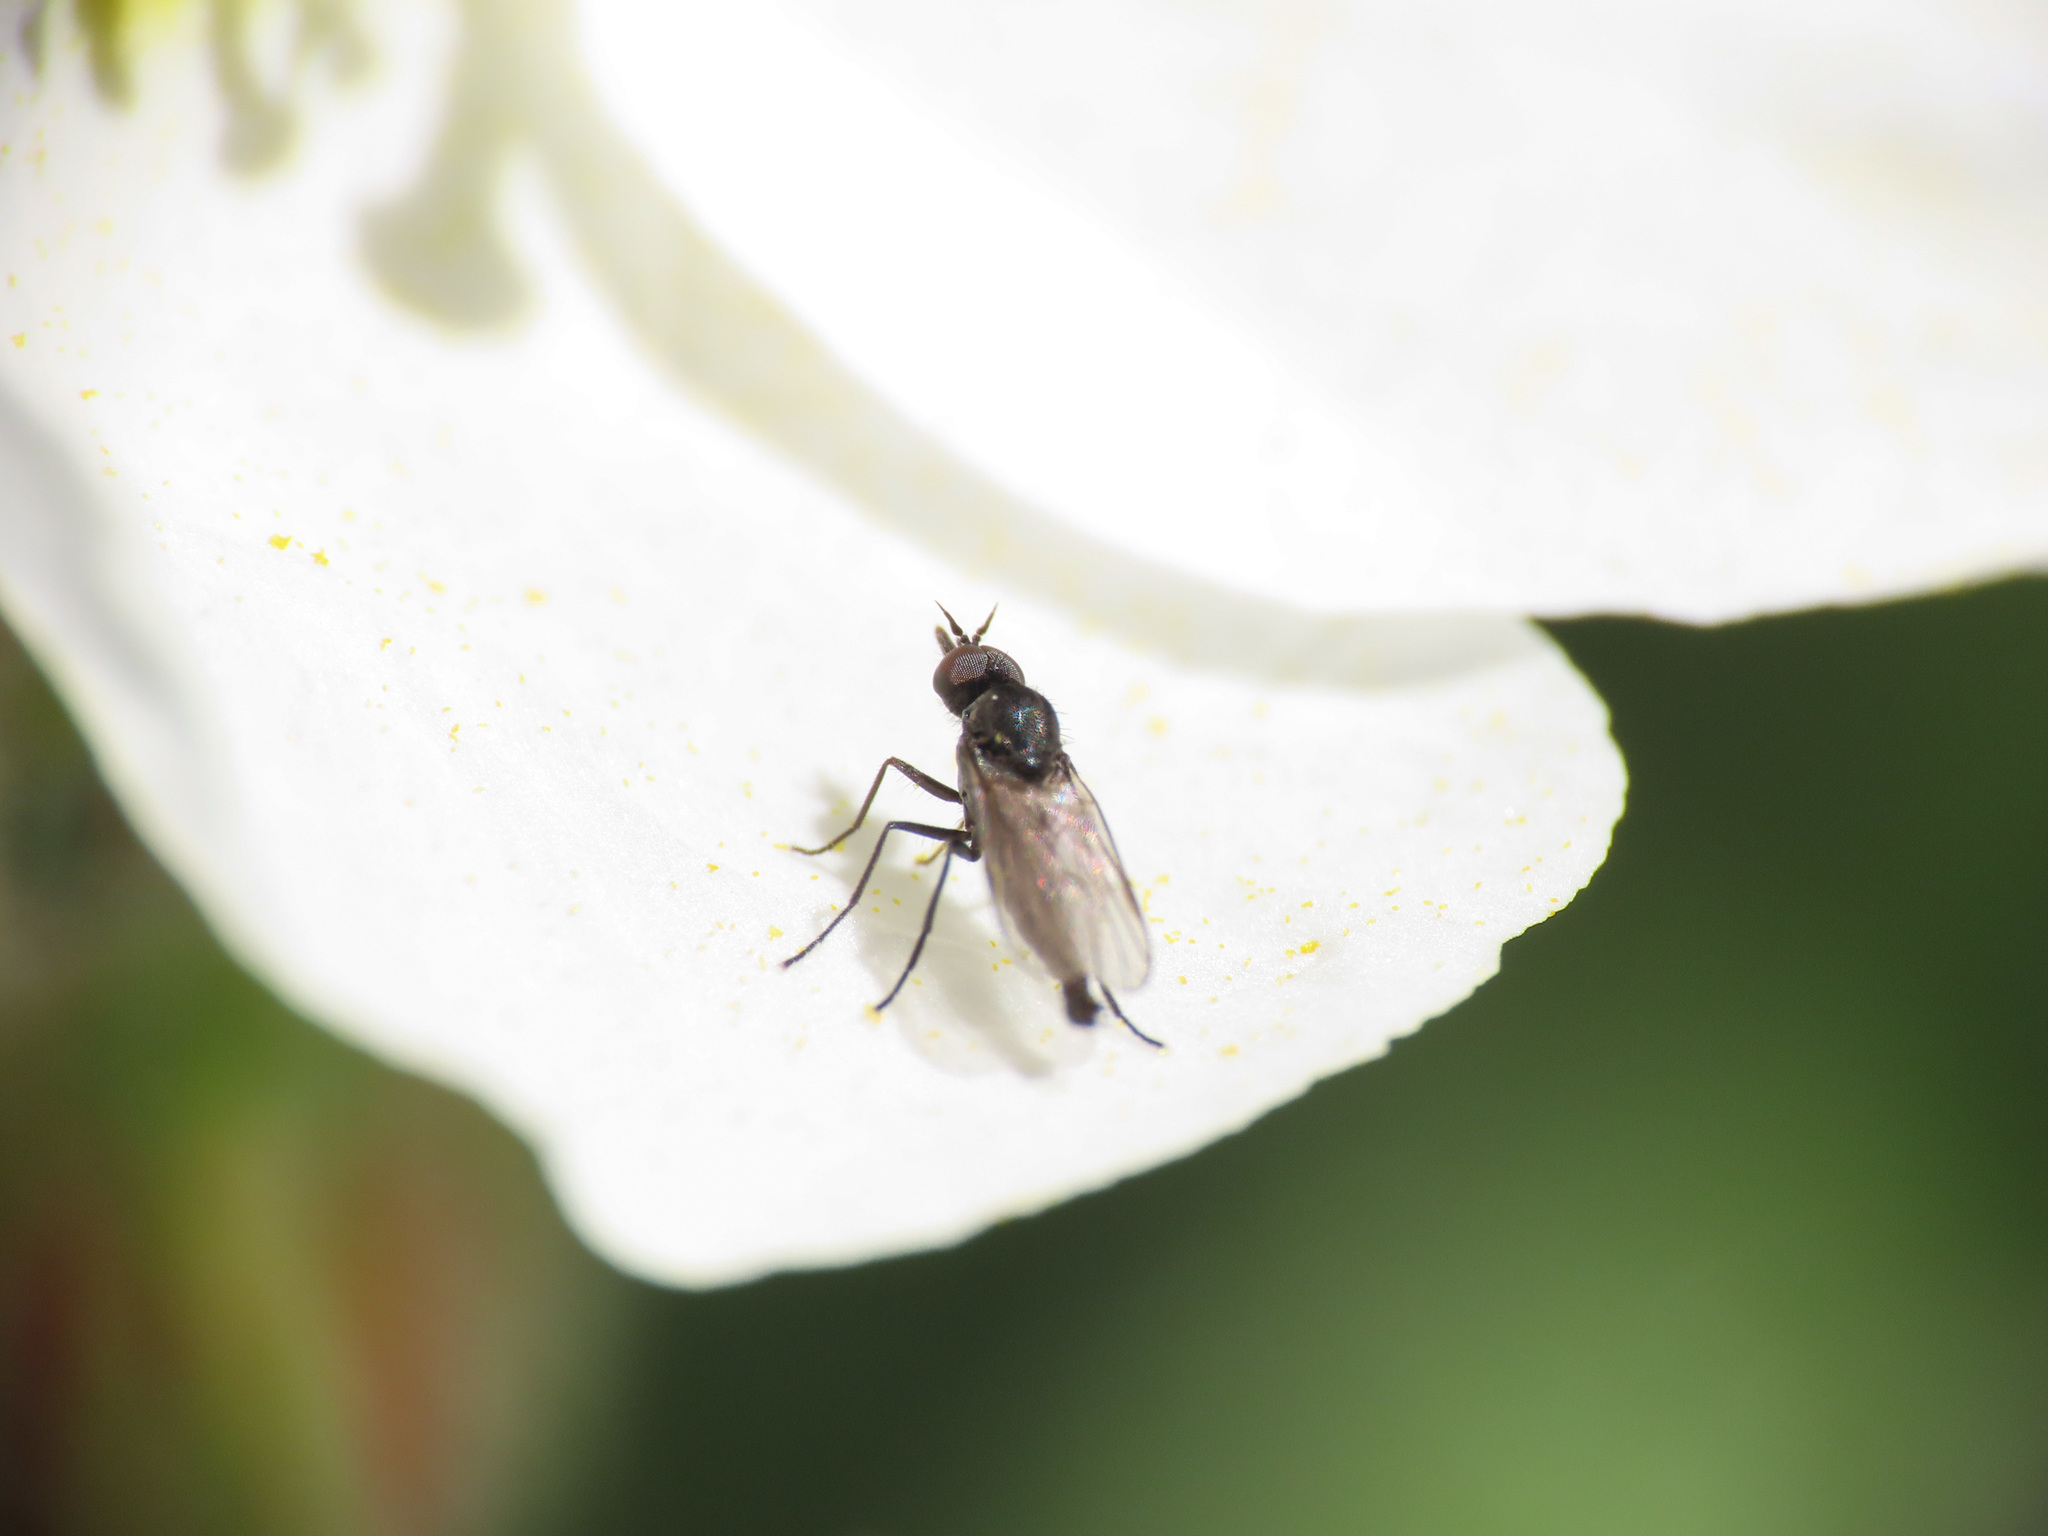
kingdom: Animalia
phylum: Arthropoda
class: Insecta
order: Diptera
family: Iteaphilidae
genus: Paraiteaphila
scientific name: Paraiteaphila italica
